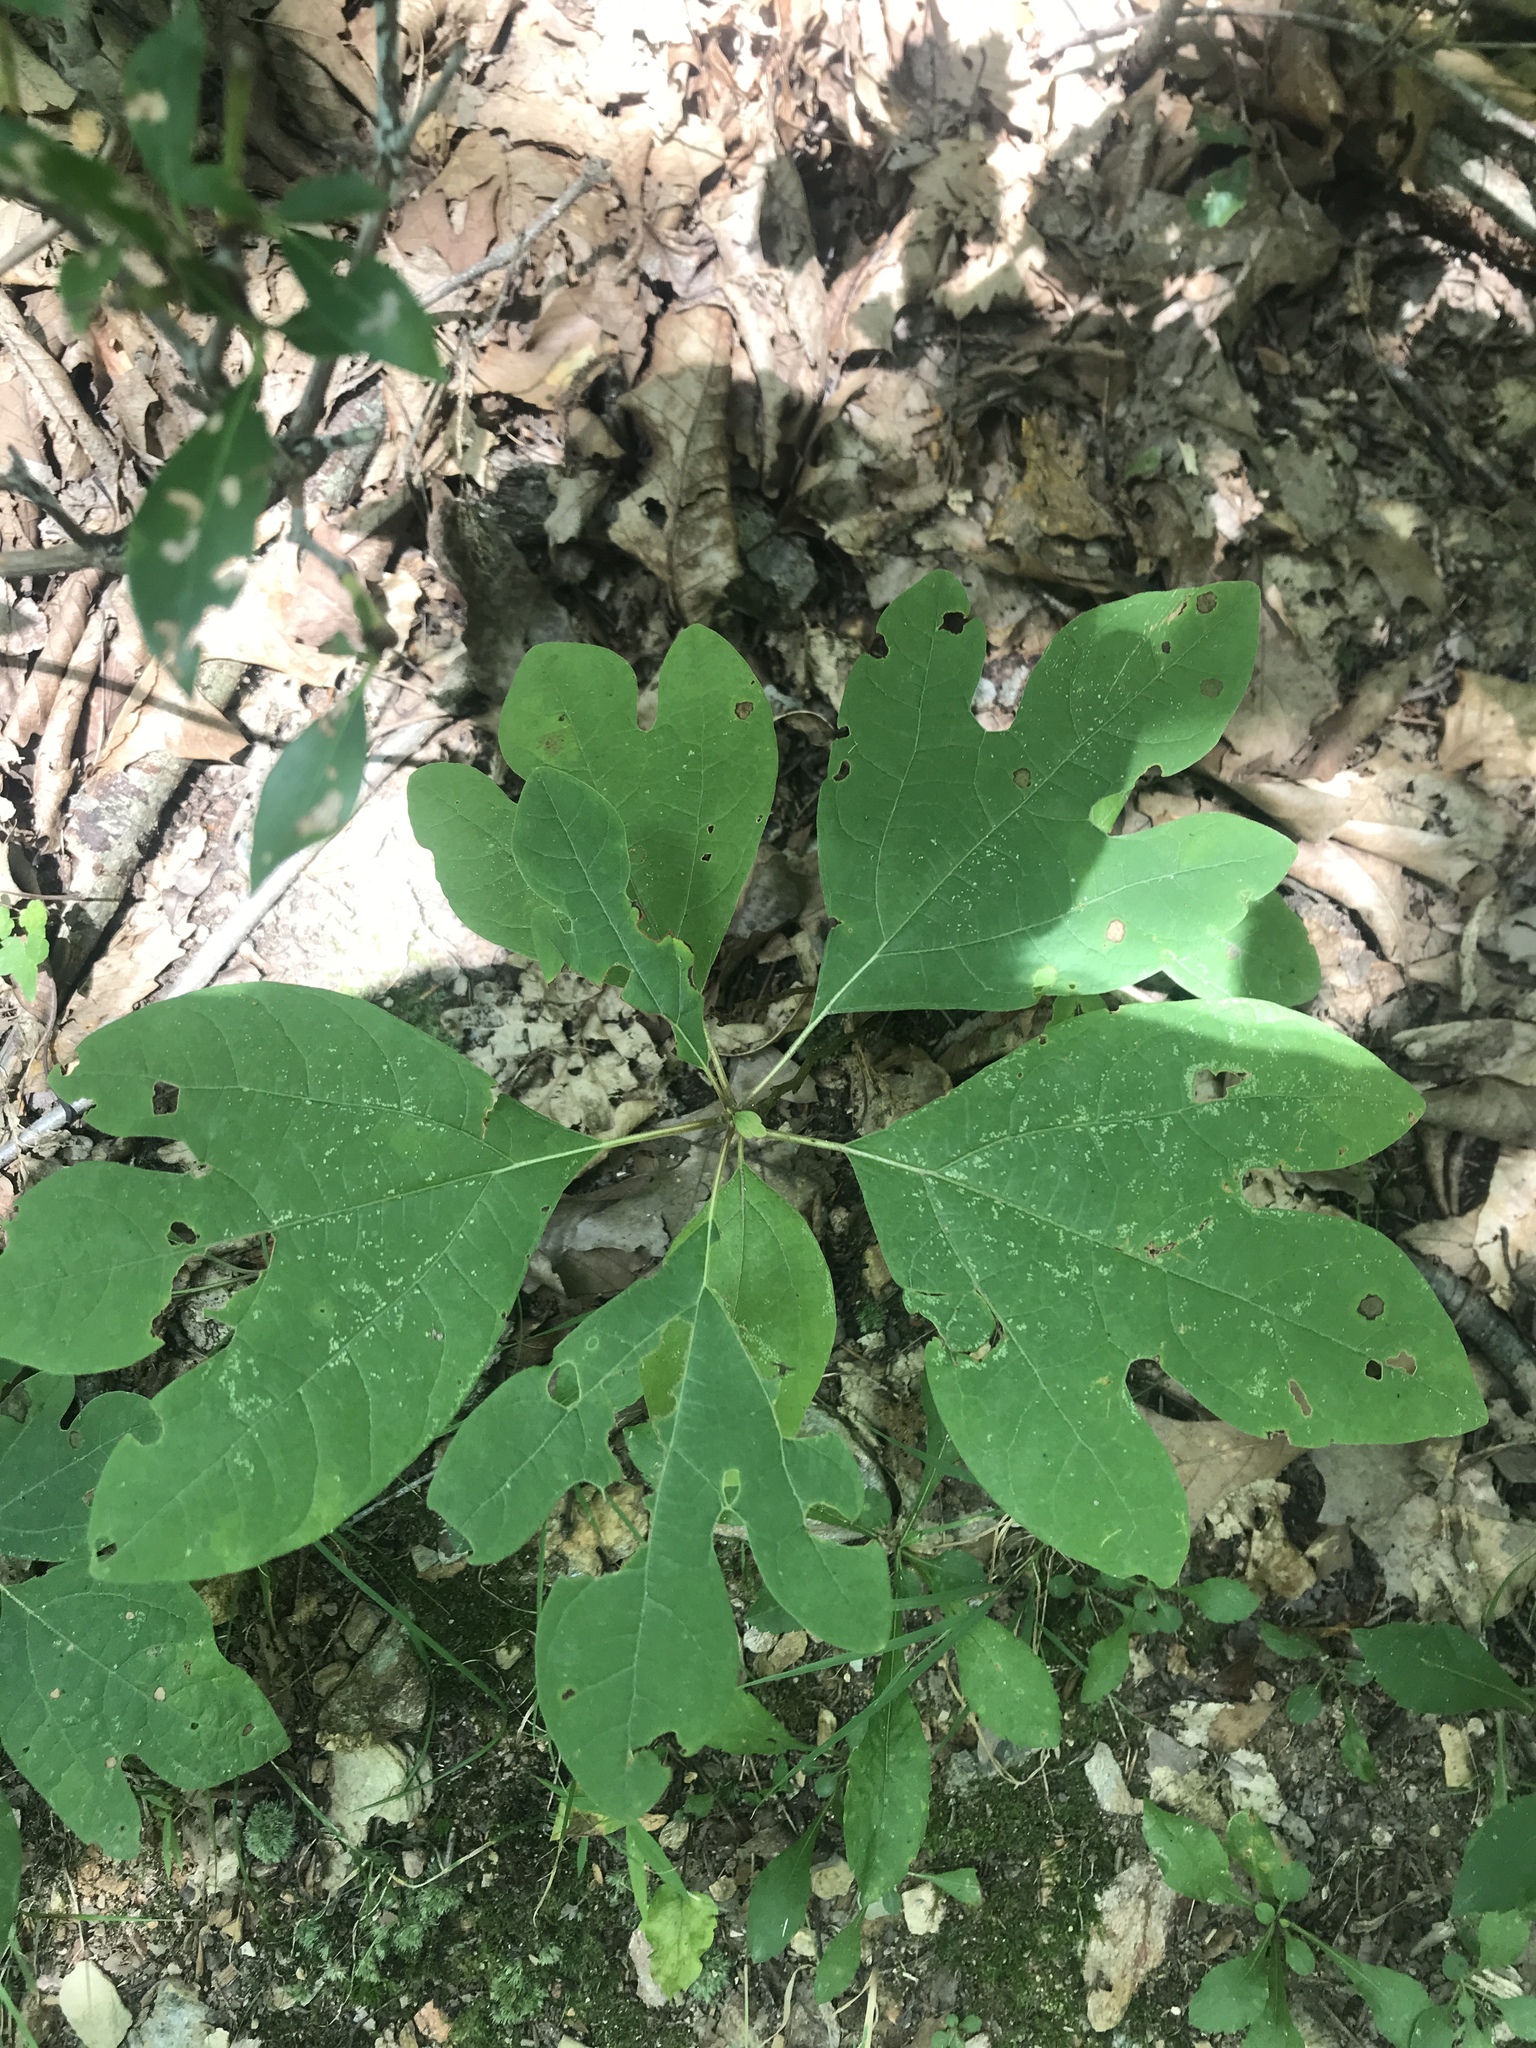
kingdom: Plantae
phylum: Tracheophyta
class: Magnoliopsida
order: Laurales
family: Lauraceae
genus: Sassafras
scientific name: Sassafras albidum
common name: Sassafras
